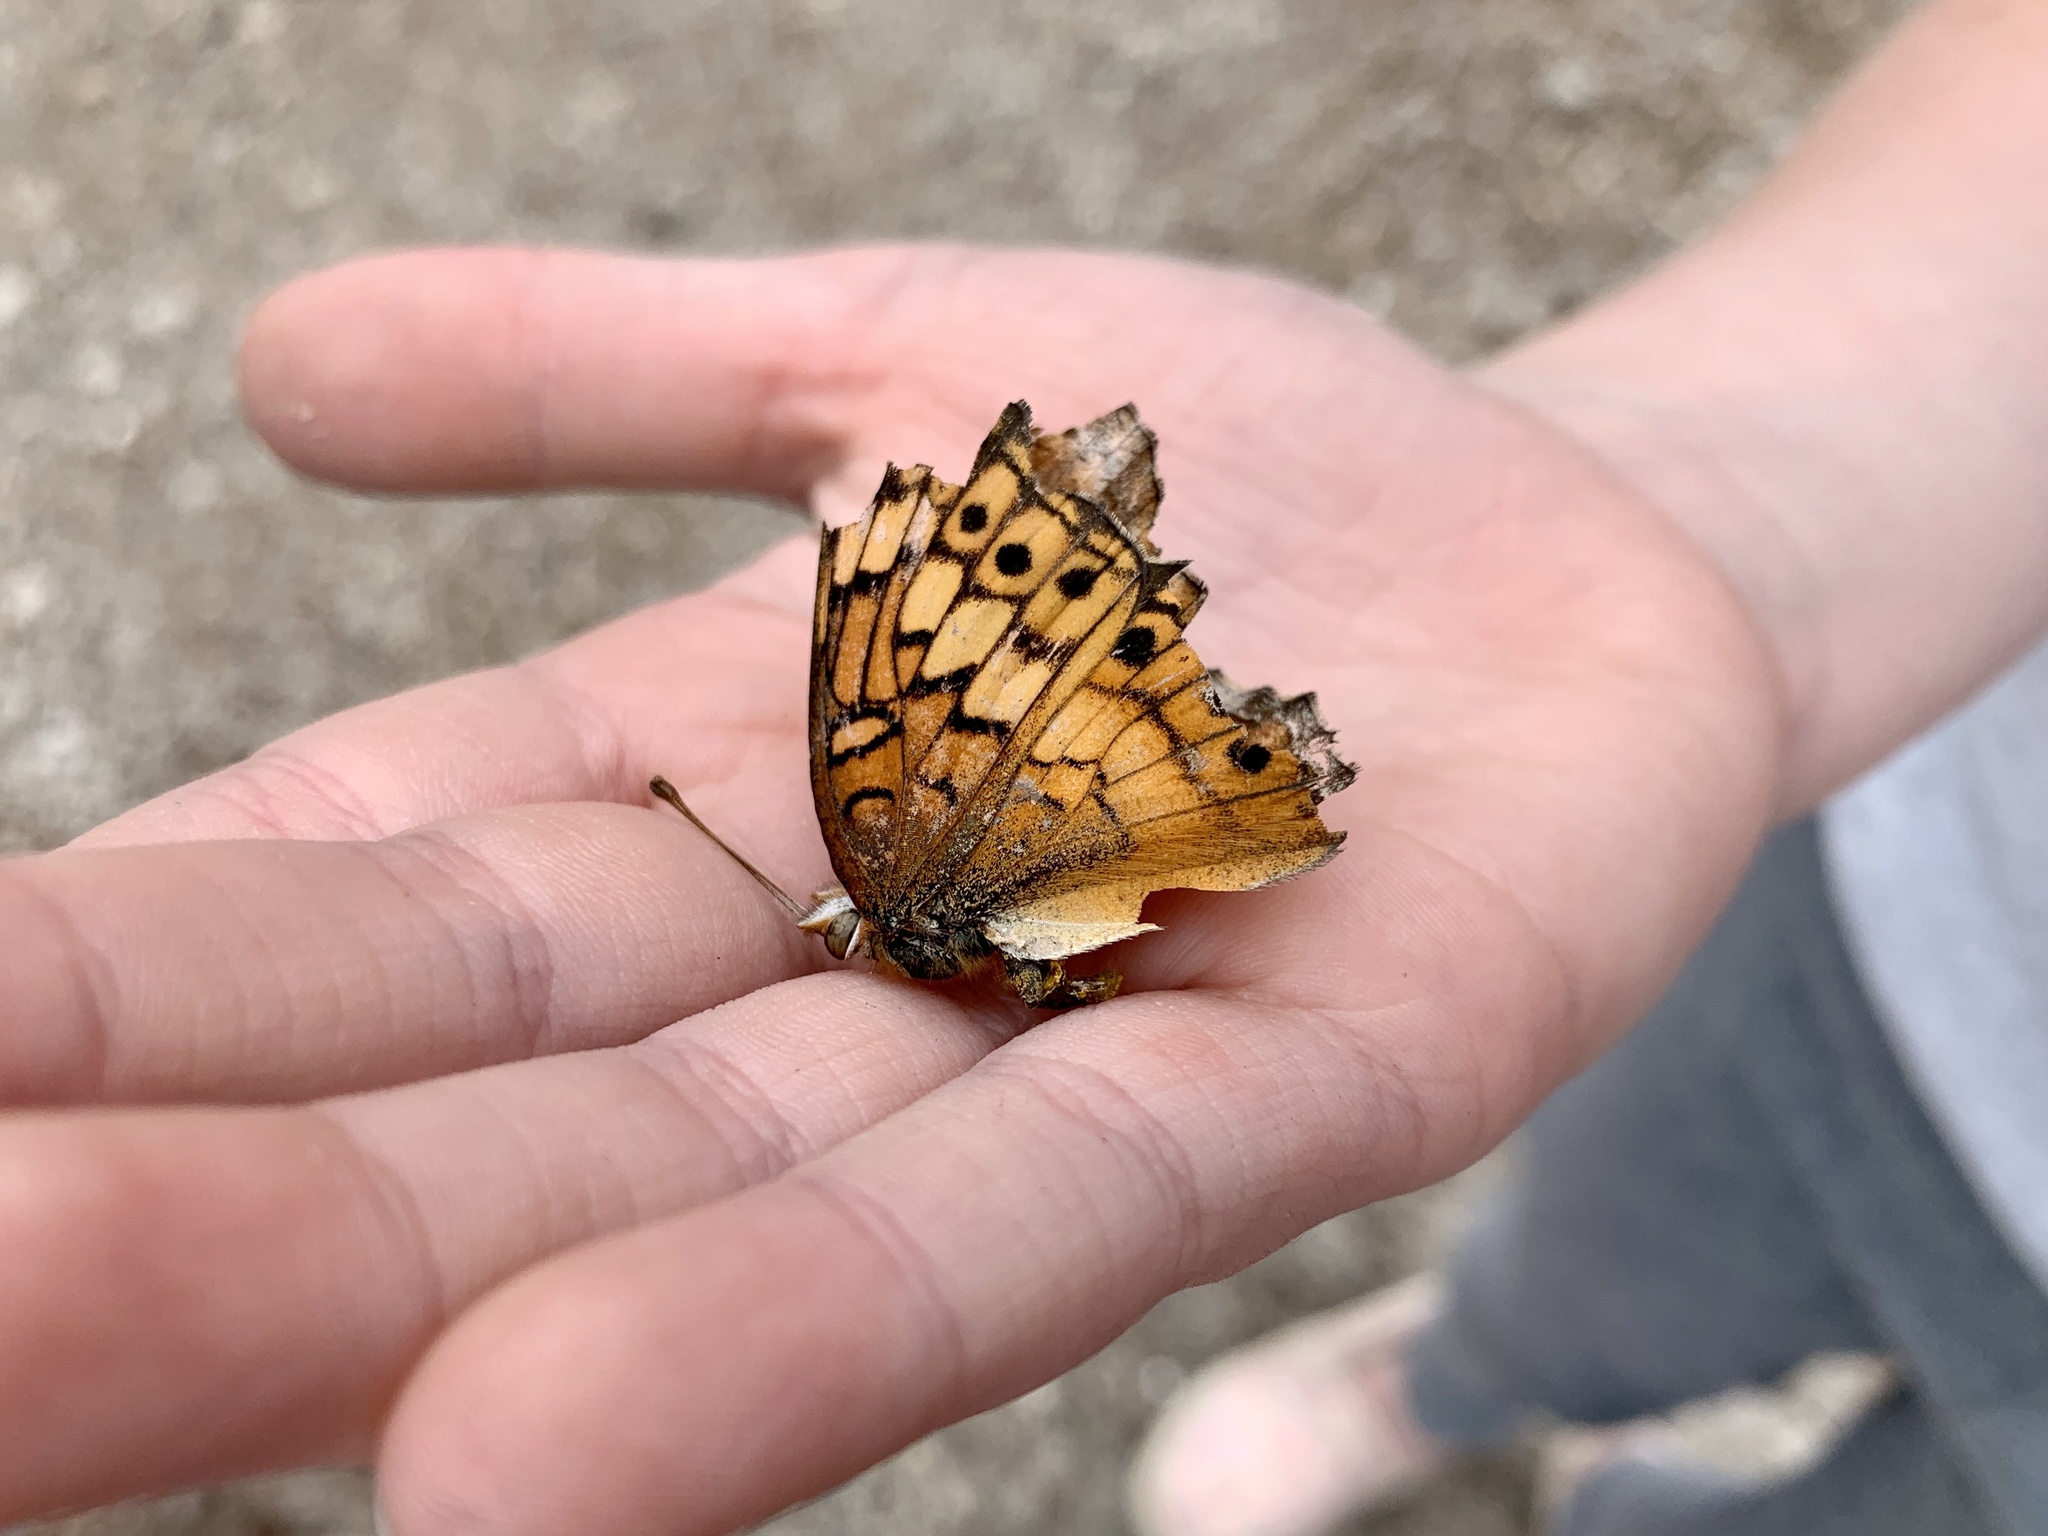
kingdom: Animalia
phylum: Arthropoda
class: Insecta
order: Lepidoptera
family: Nymphalidae
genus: Euptoieta
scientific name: Euptoieta claudia
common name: Variegated fritillary
